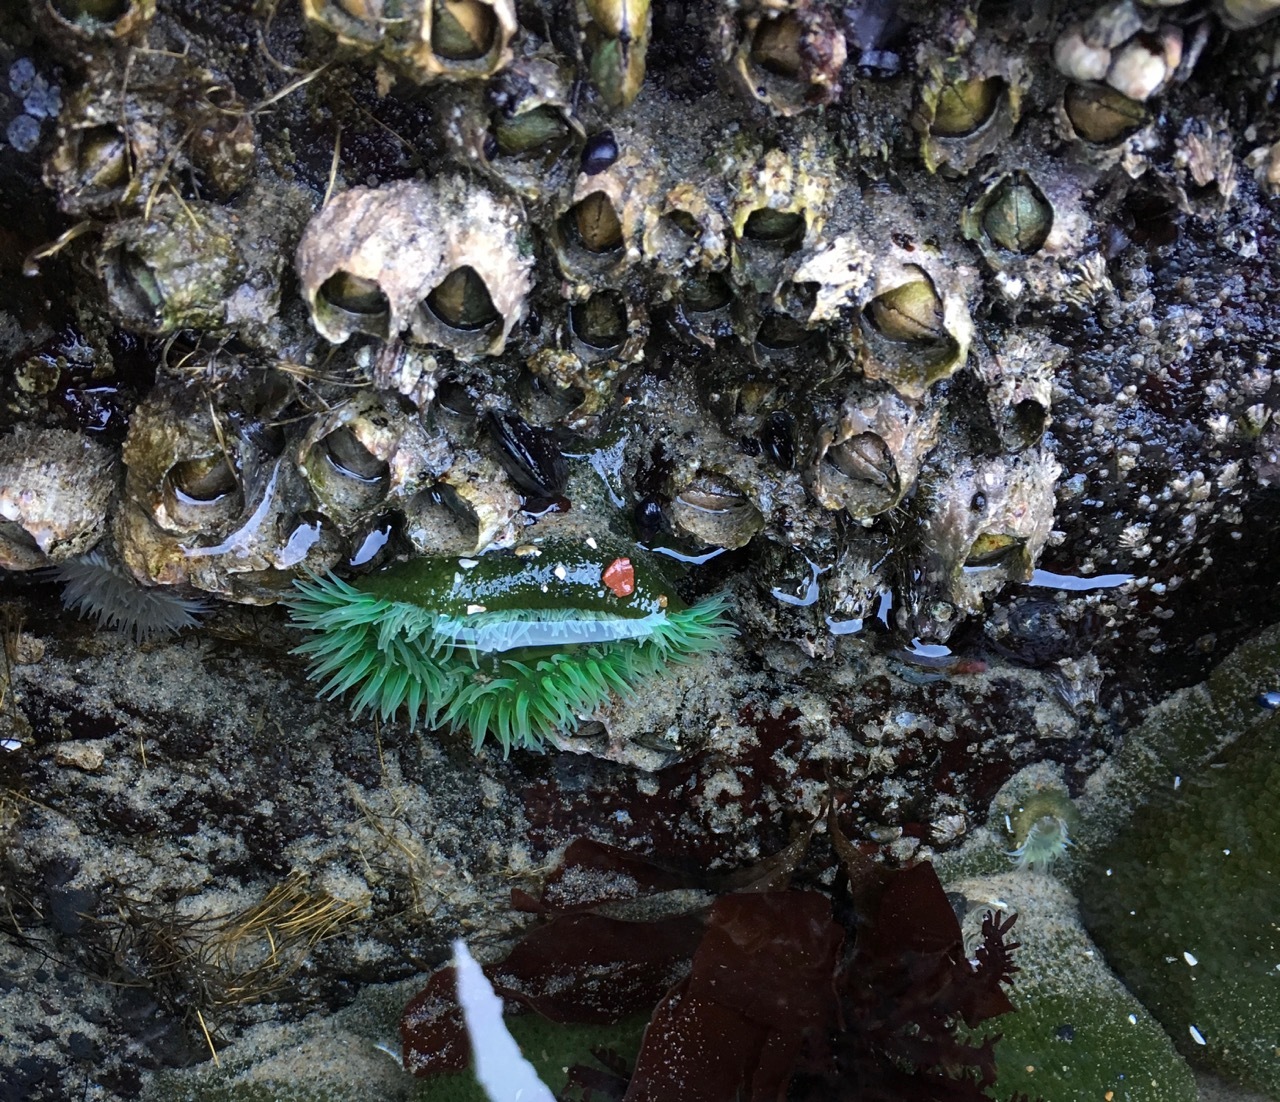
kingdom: Animalia
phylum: Cnidaria
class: Anthozoa
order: Actiniaria
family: Actiniidae
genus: Anthopleura
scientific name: Anthopleura xanthogrammica
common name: Giant green anemone
